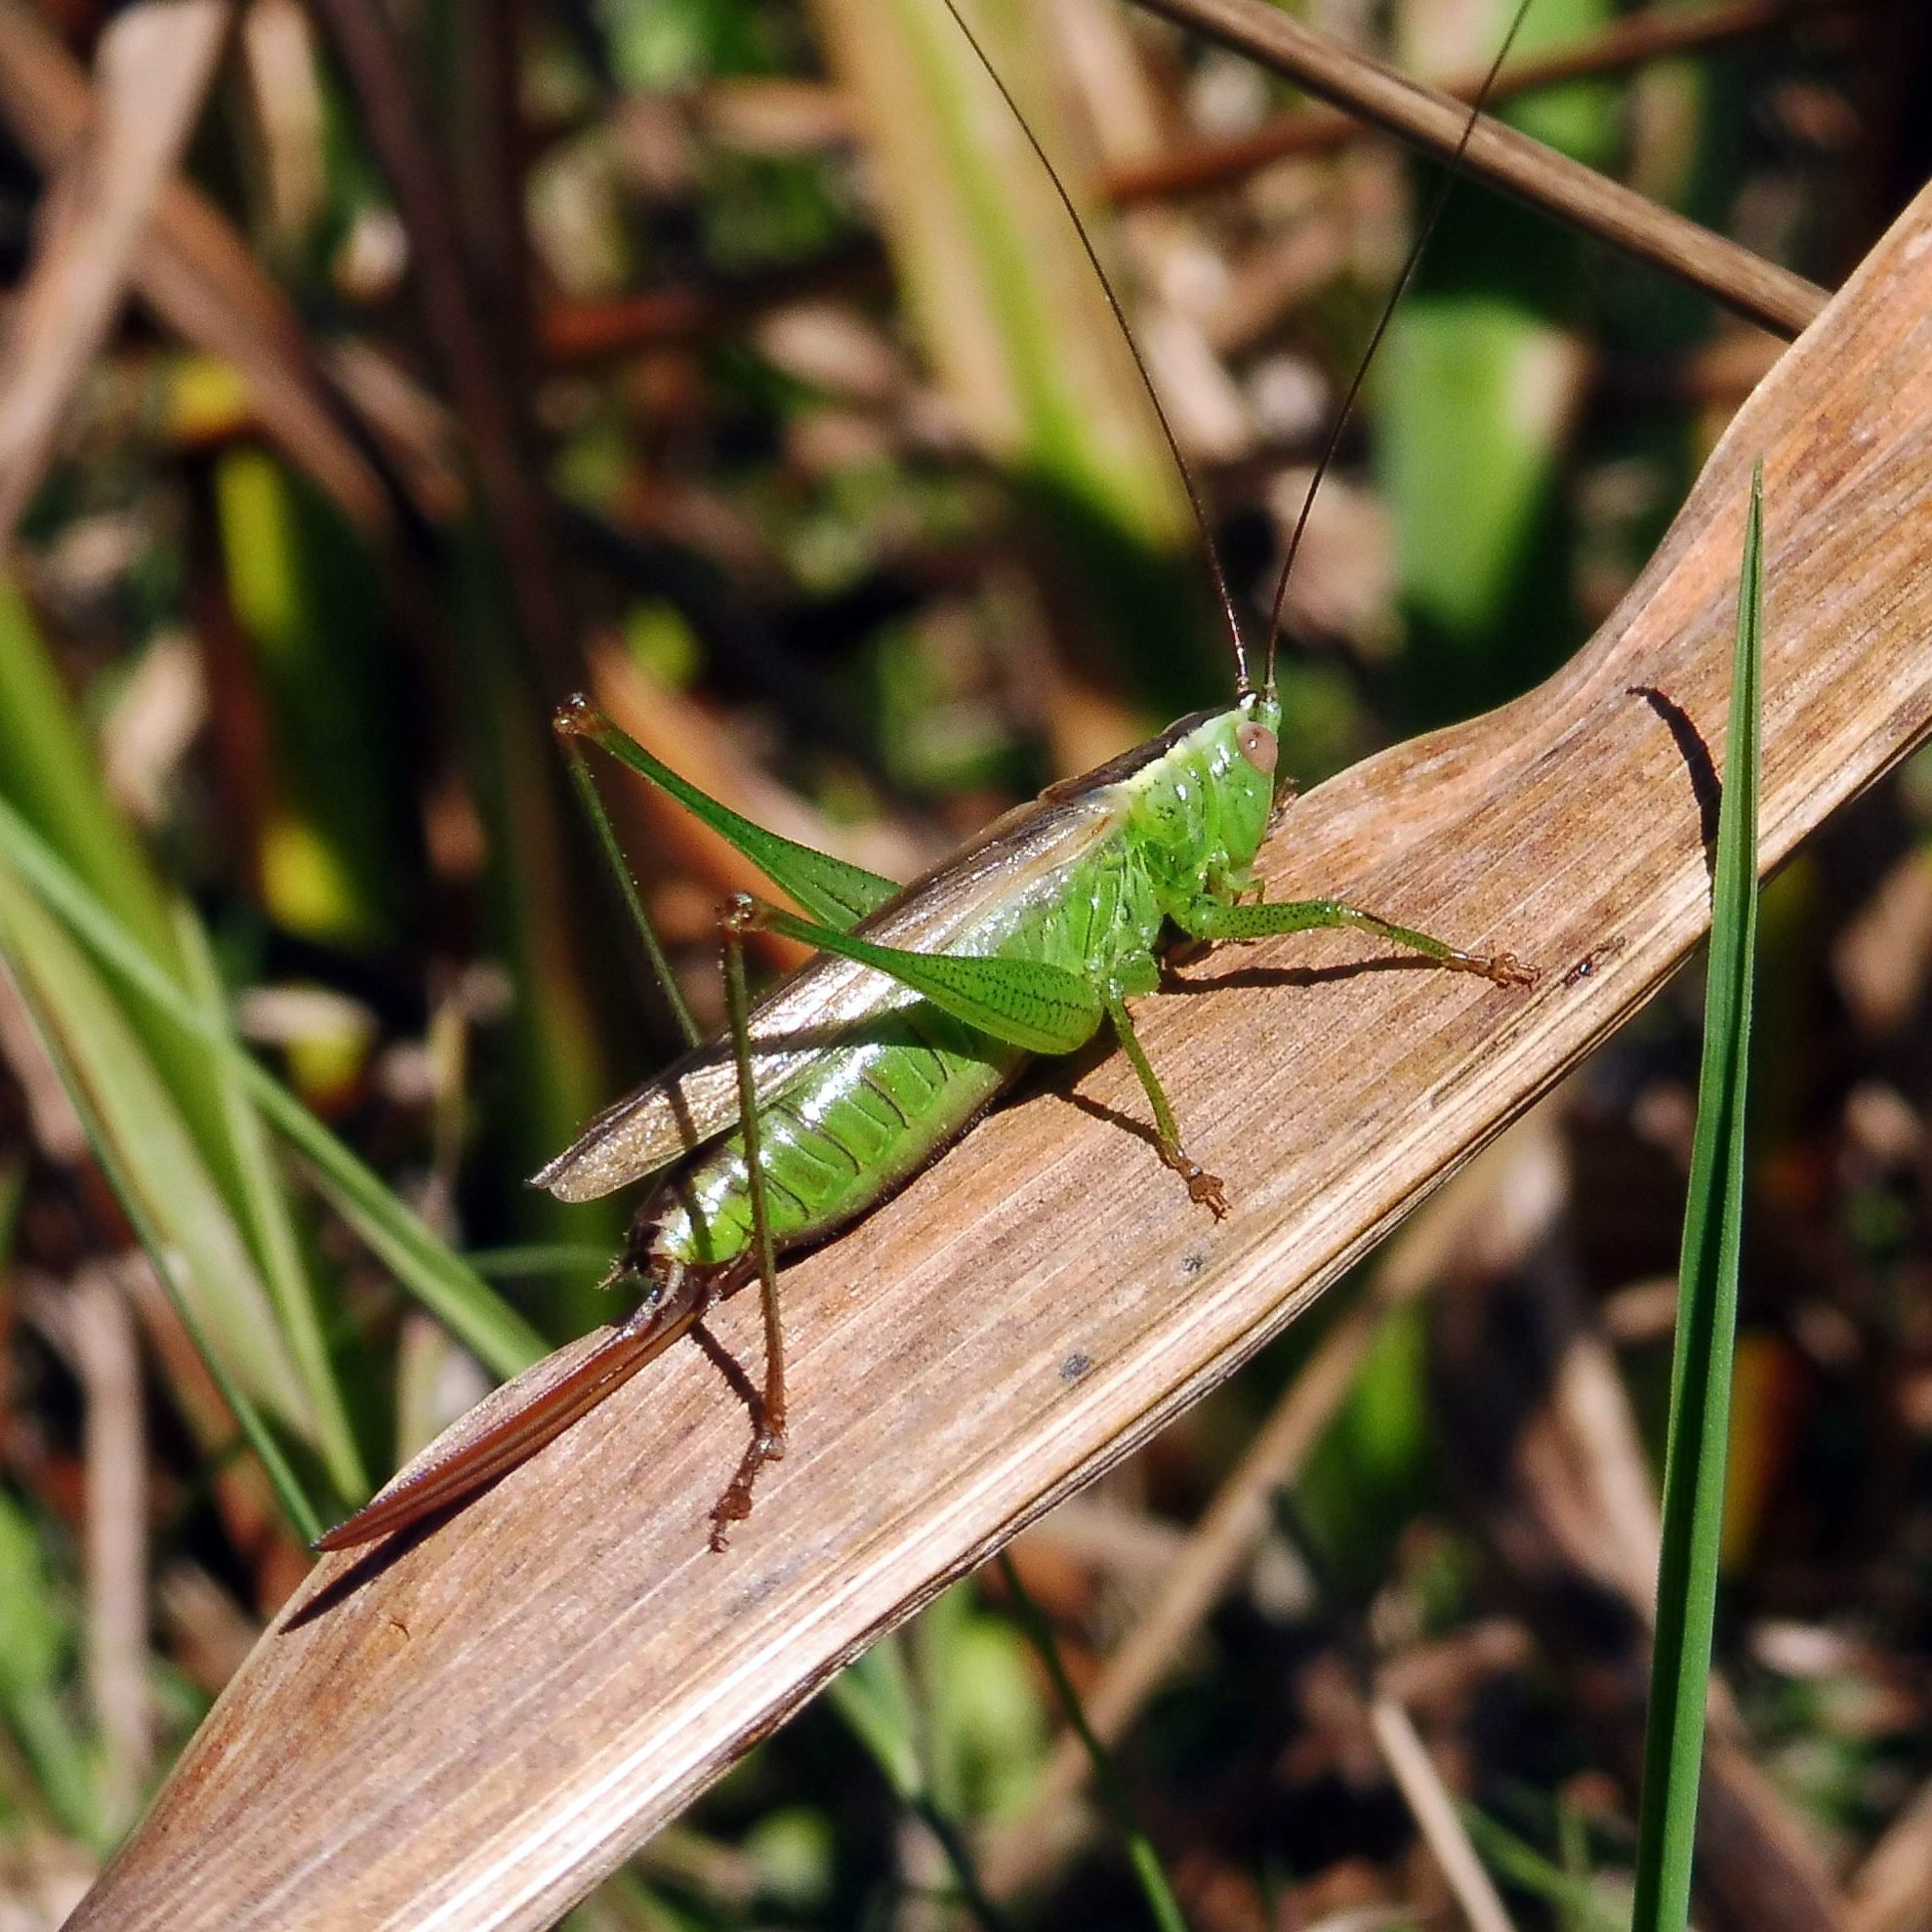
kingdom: Animalia
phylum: Arthropoda
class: Insecta
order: Orthoptera
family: Tettigoniidae
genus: Conocephalus
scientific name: Conocephalus fuscus
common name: Long-winged conehead
